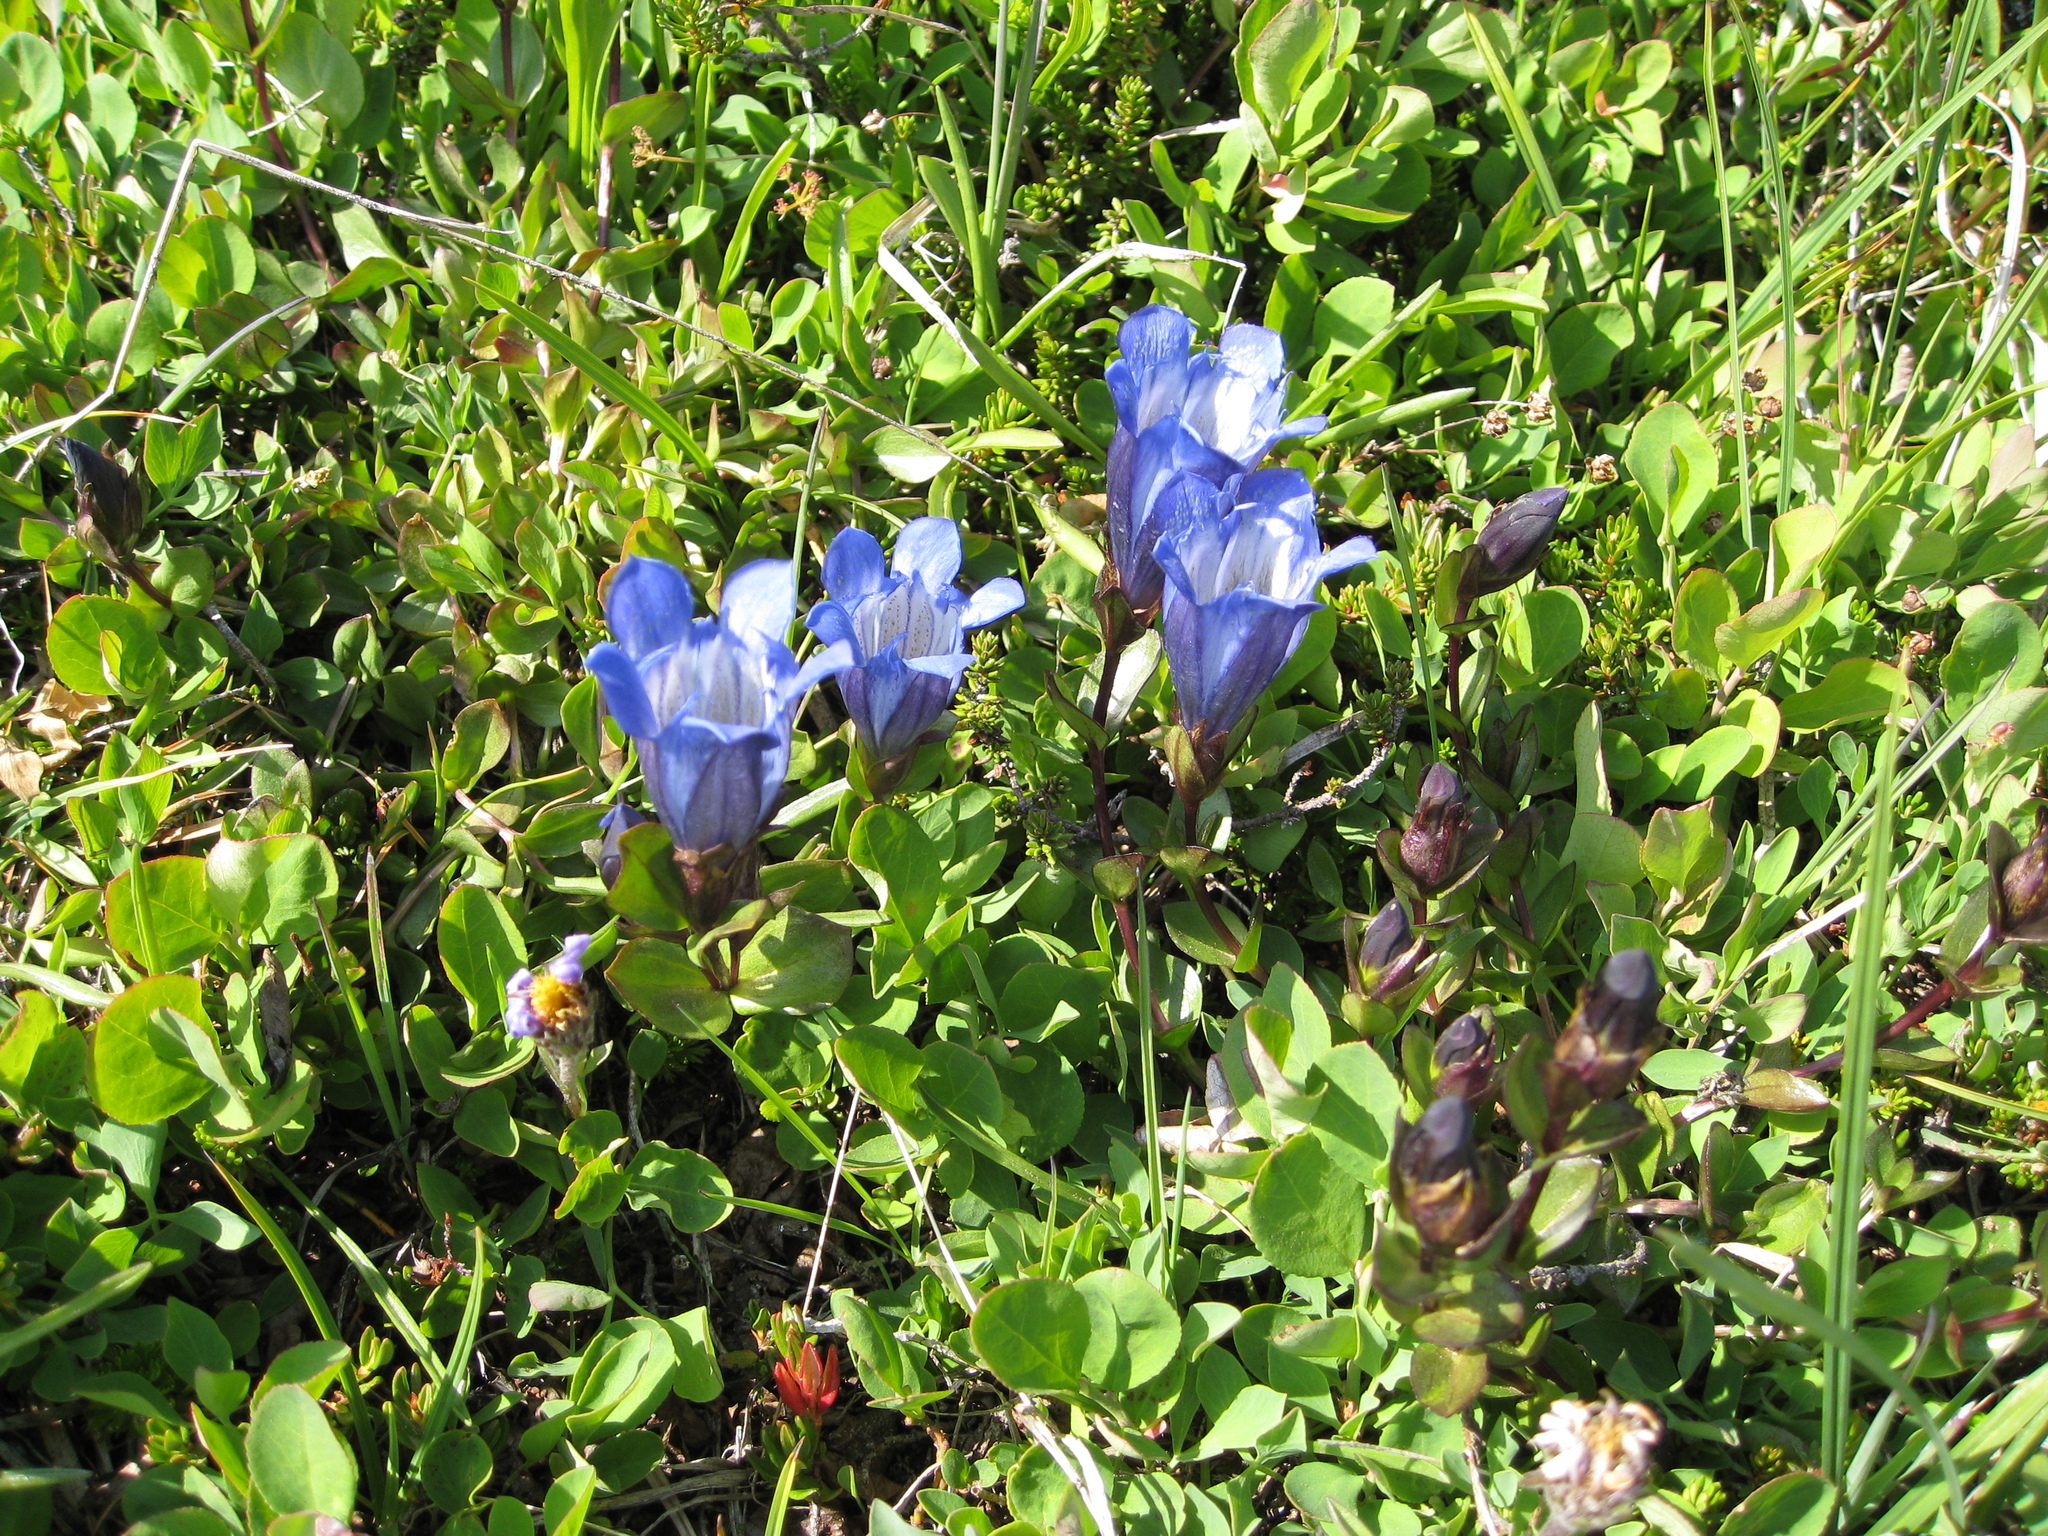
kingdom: Plantae
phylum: Tracheophyta
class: Magnoliopsida
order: Gentianales
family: Gentianaceae
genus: Gentiana
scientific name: Gentiana calycosa
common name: Rainier pleated gentian
